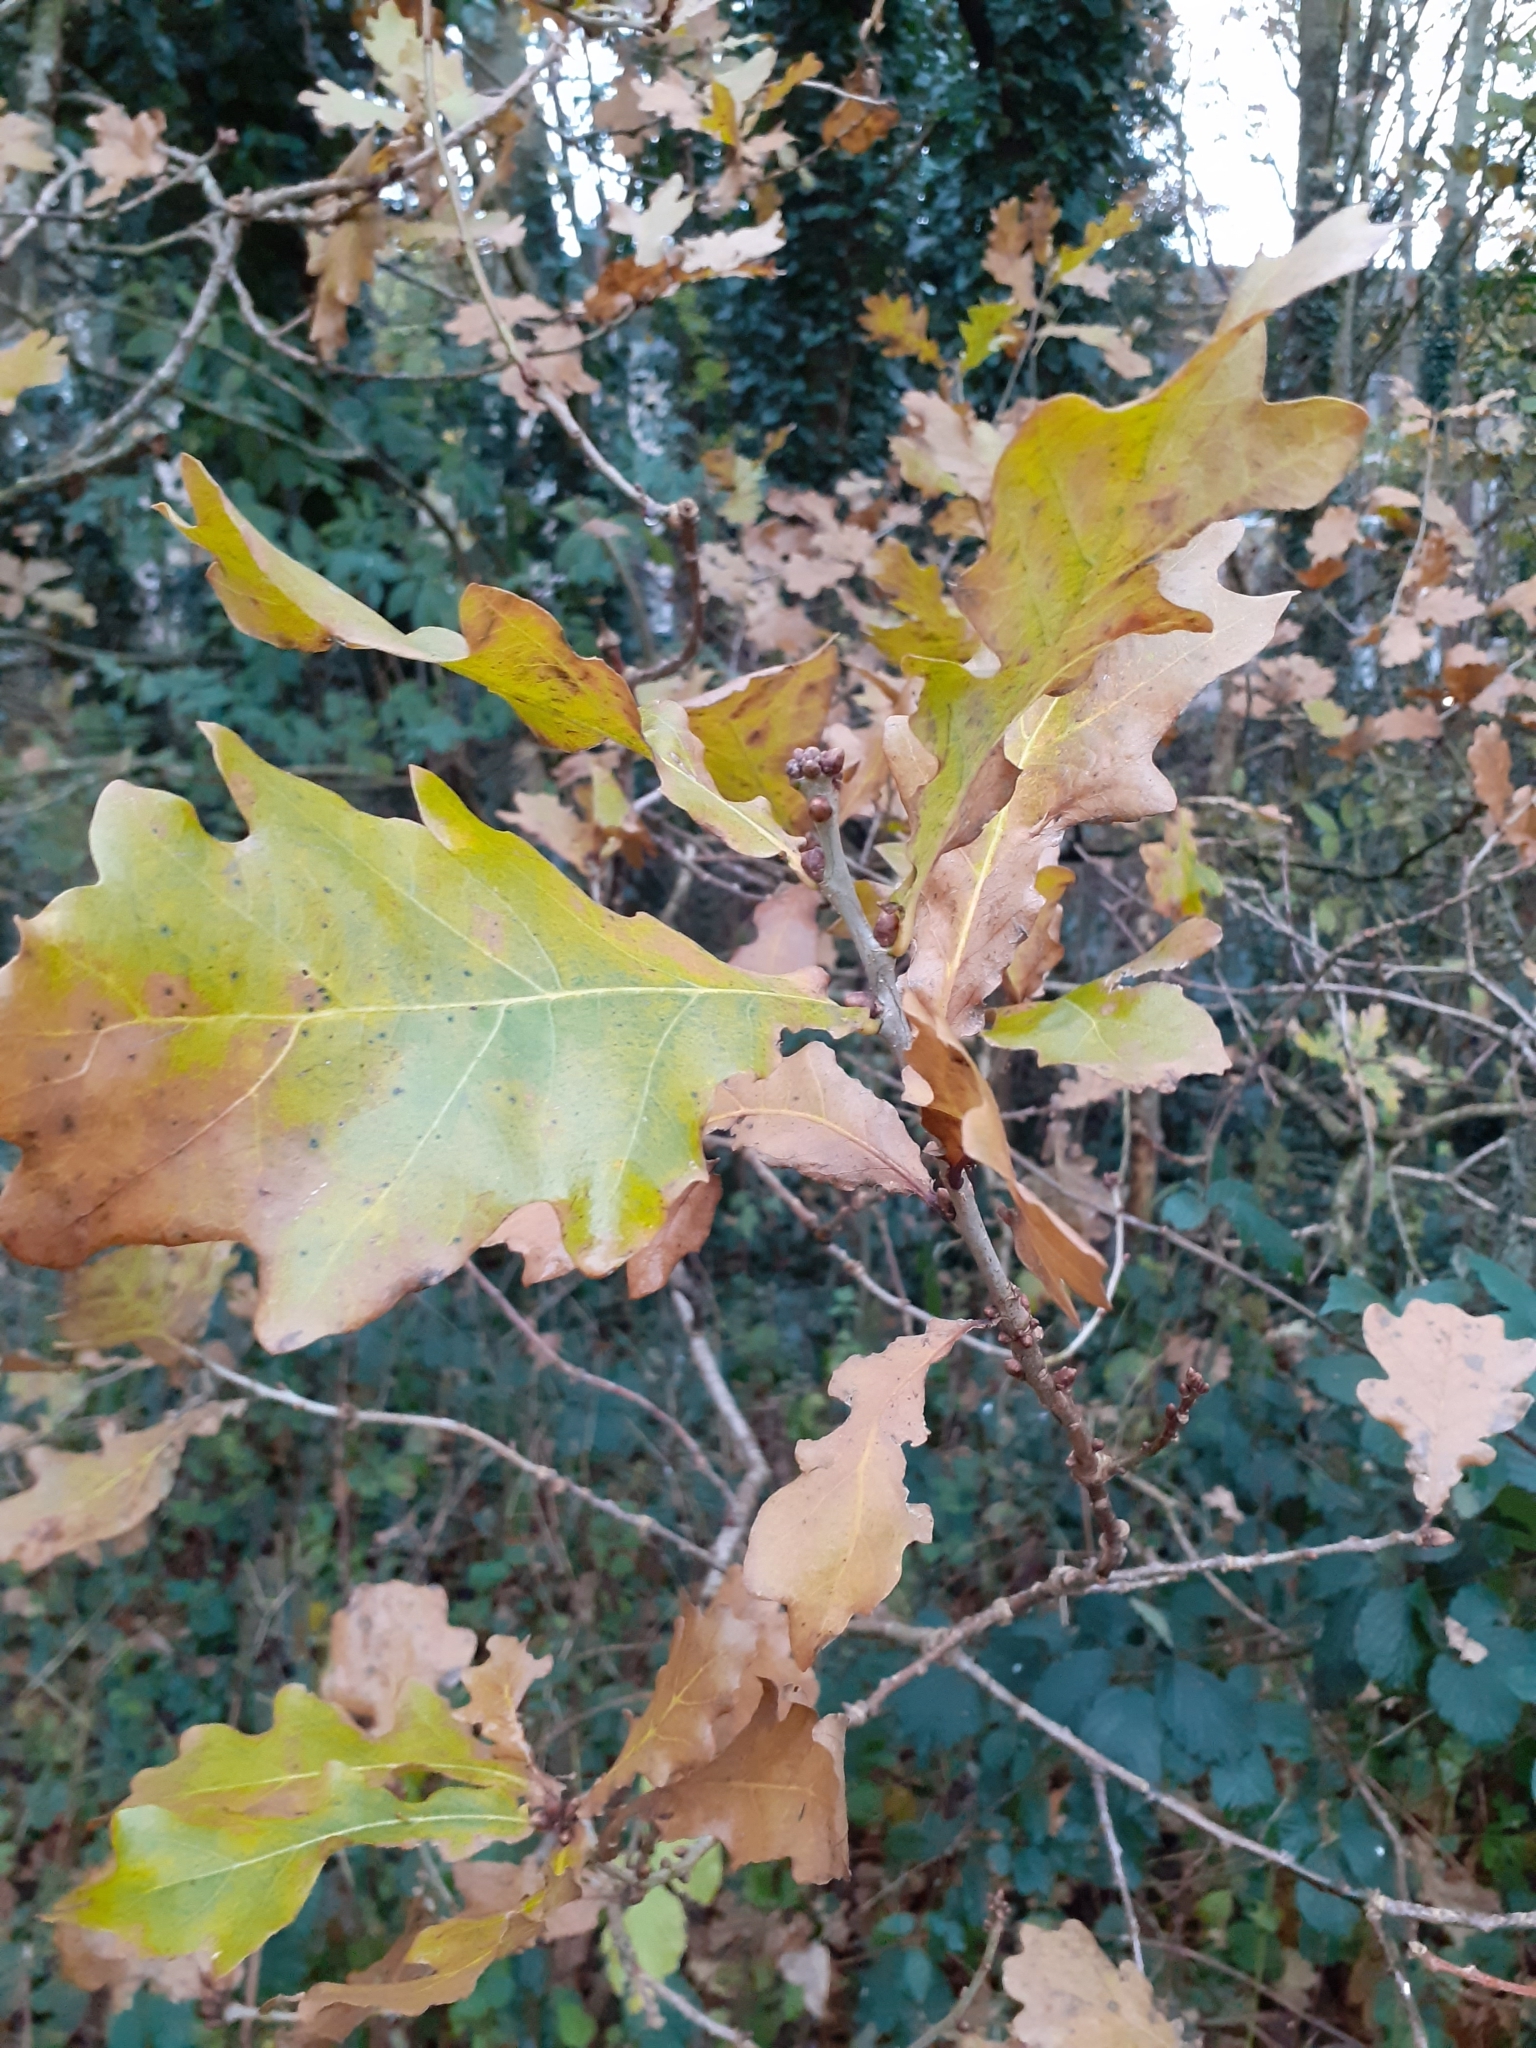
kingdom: Plantae
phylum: Tracheophyta
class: Magnoliopsida
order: Fagales
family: Fagaceae
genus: Quercus
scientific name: Quercus robur
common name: Pedunculate oak
